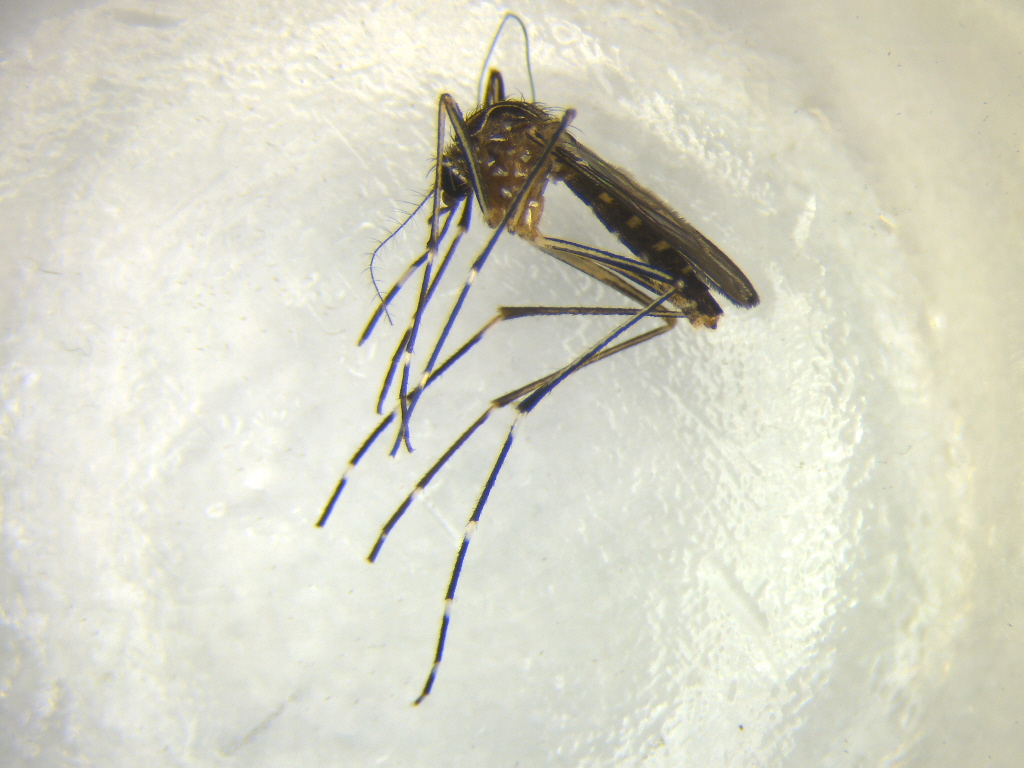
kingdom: Animalia
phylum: Arthropoda
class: Insecta
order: Diptera
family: Culicidae
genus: Aedes
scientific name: Aedes notoscriptus
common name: Australian backyard mosquito
